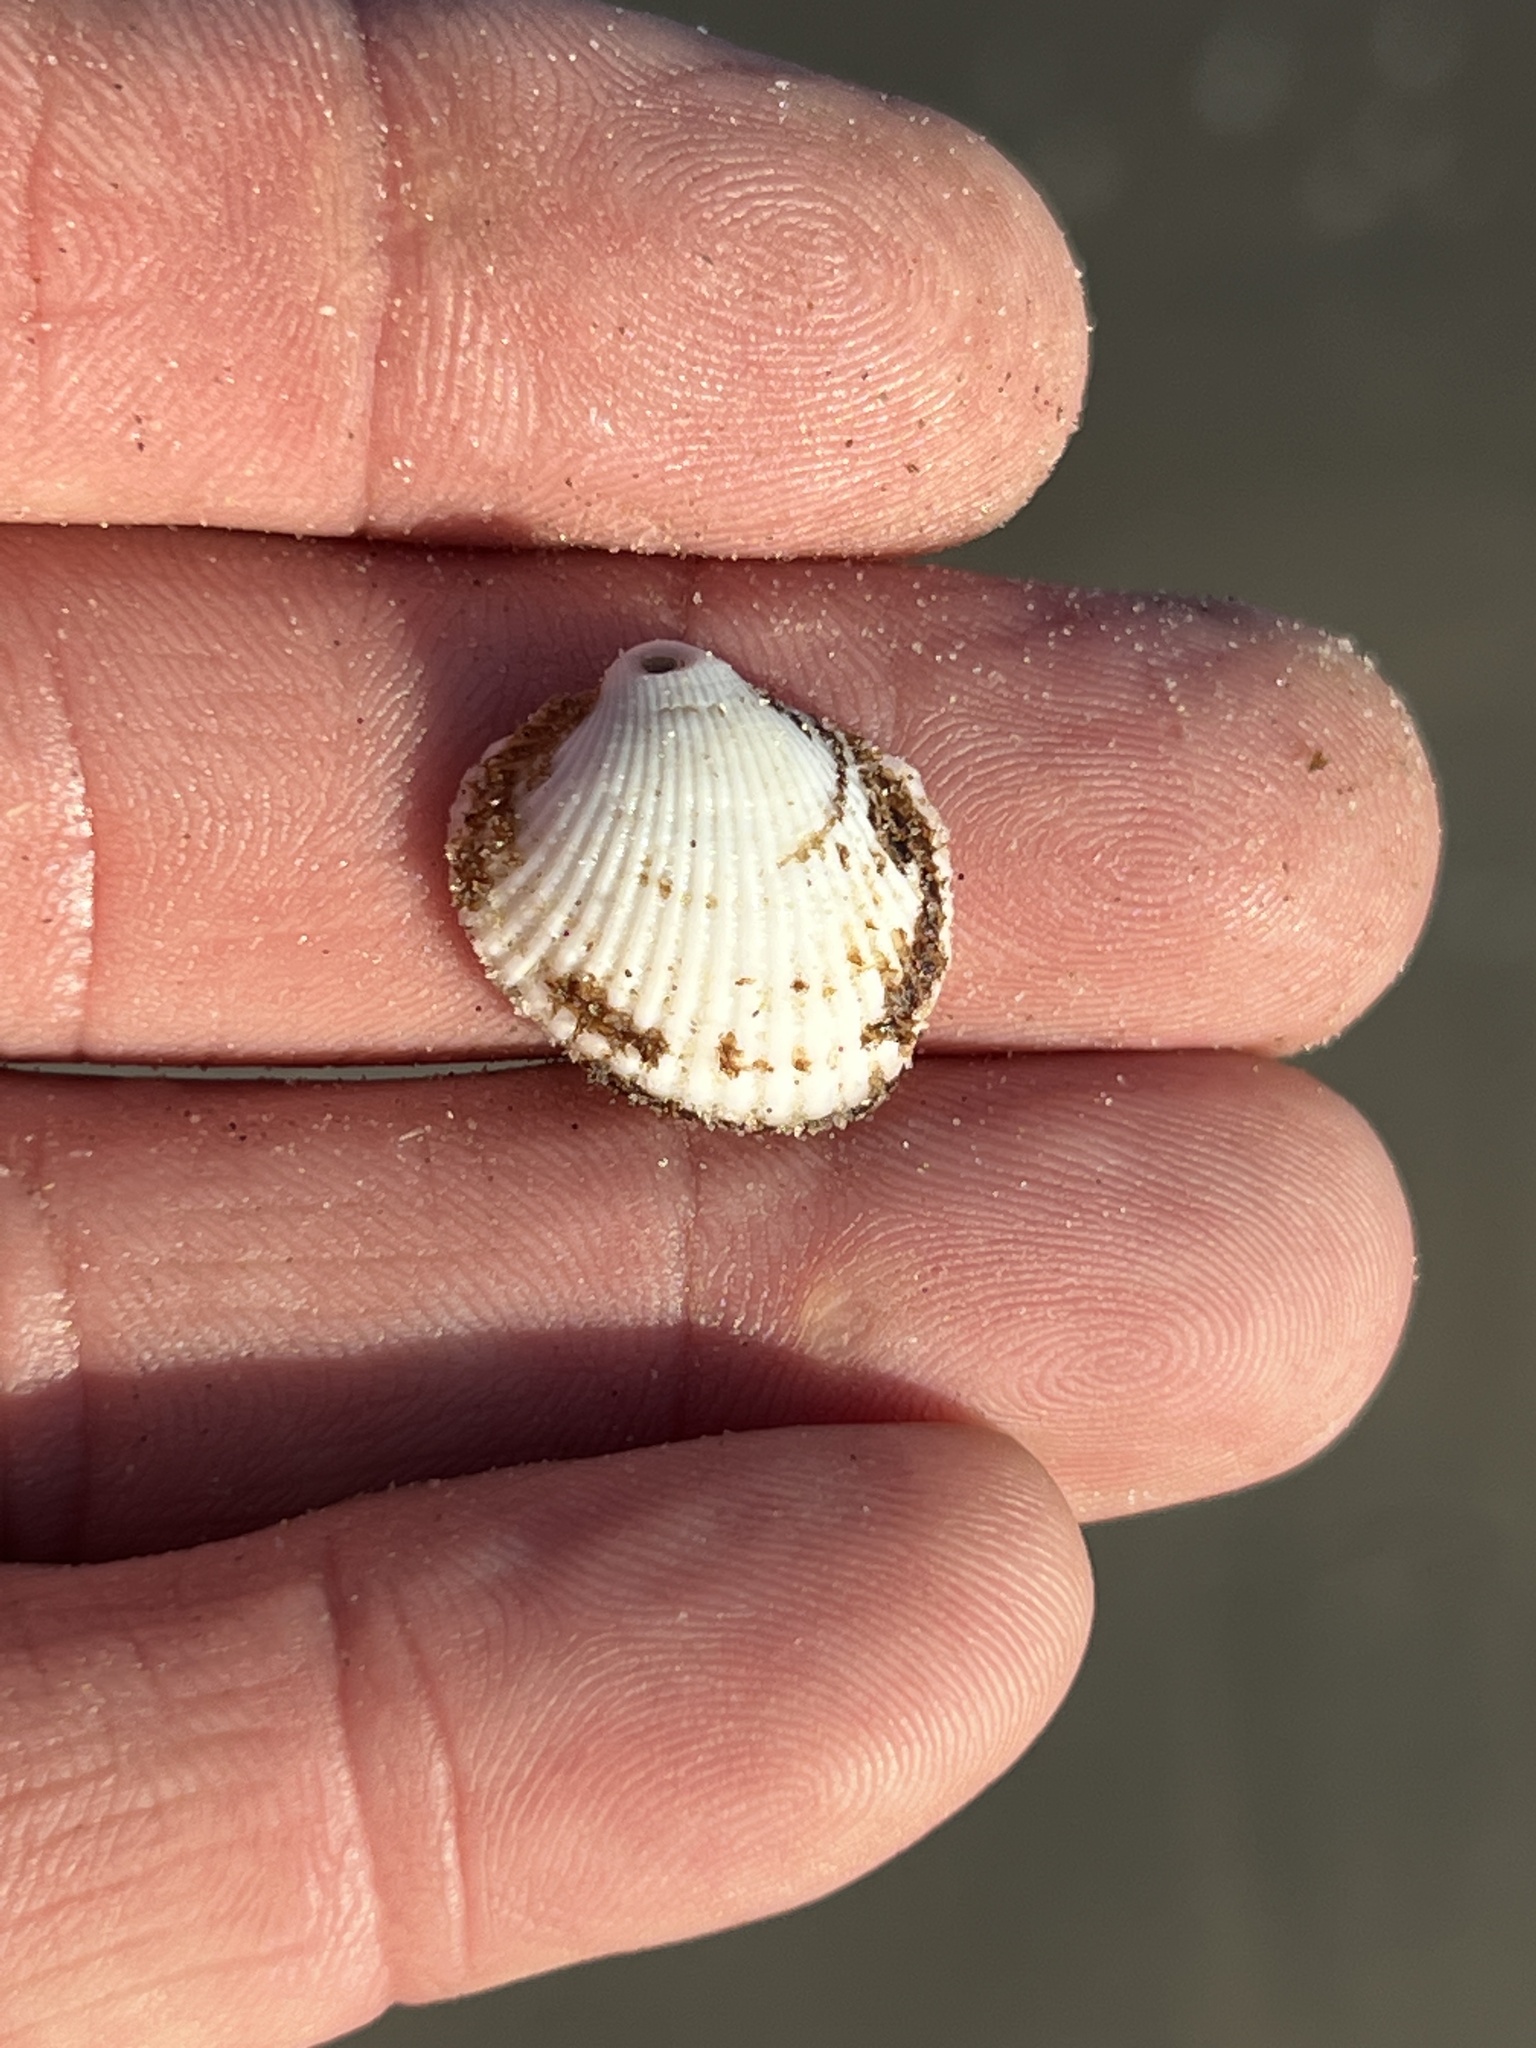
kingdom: Animalia
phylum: Mollusca
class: Bivalvia
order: Arcida
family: Arcidae
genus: Lunarca
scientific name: Lunarca ovalis
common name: Blood ark
